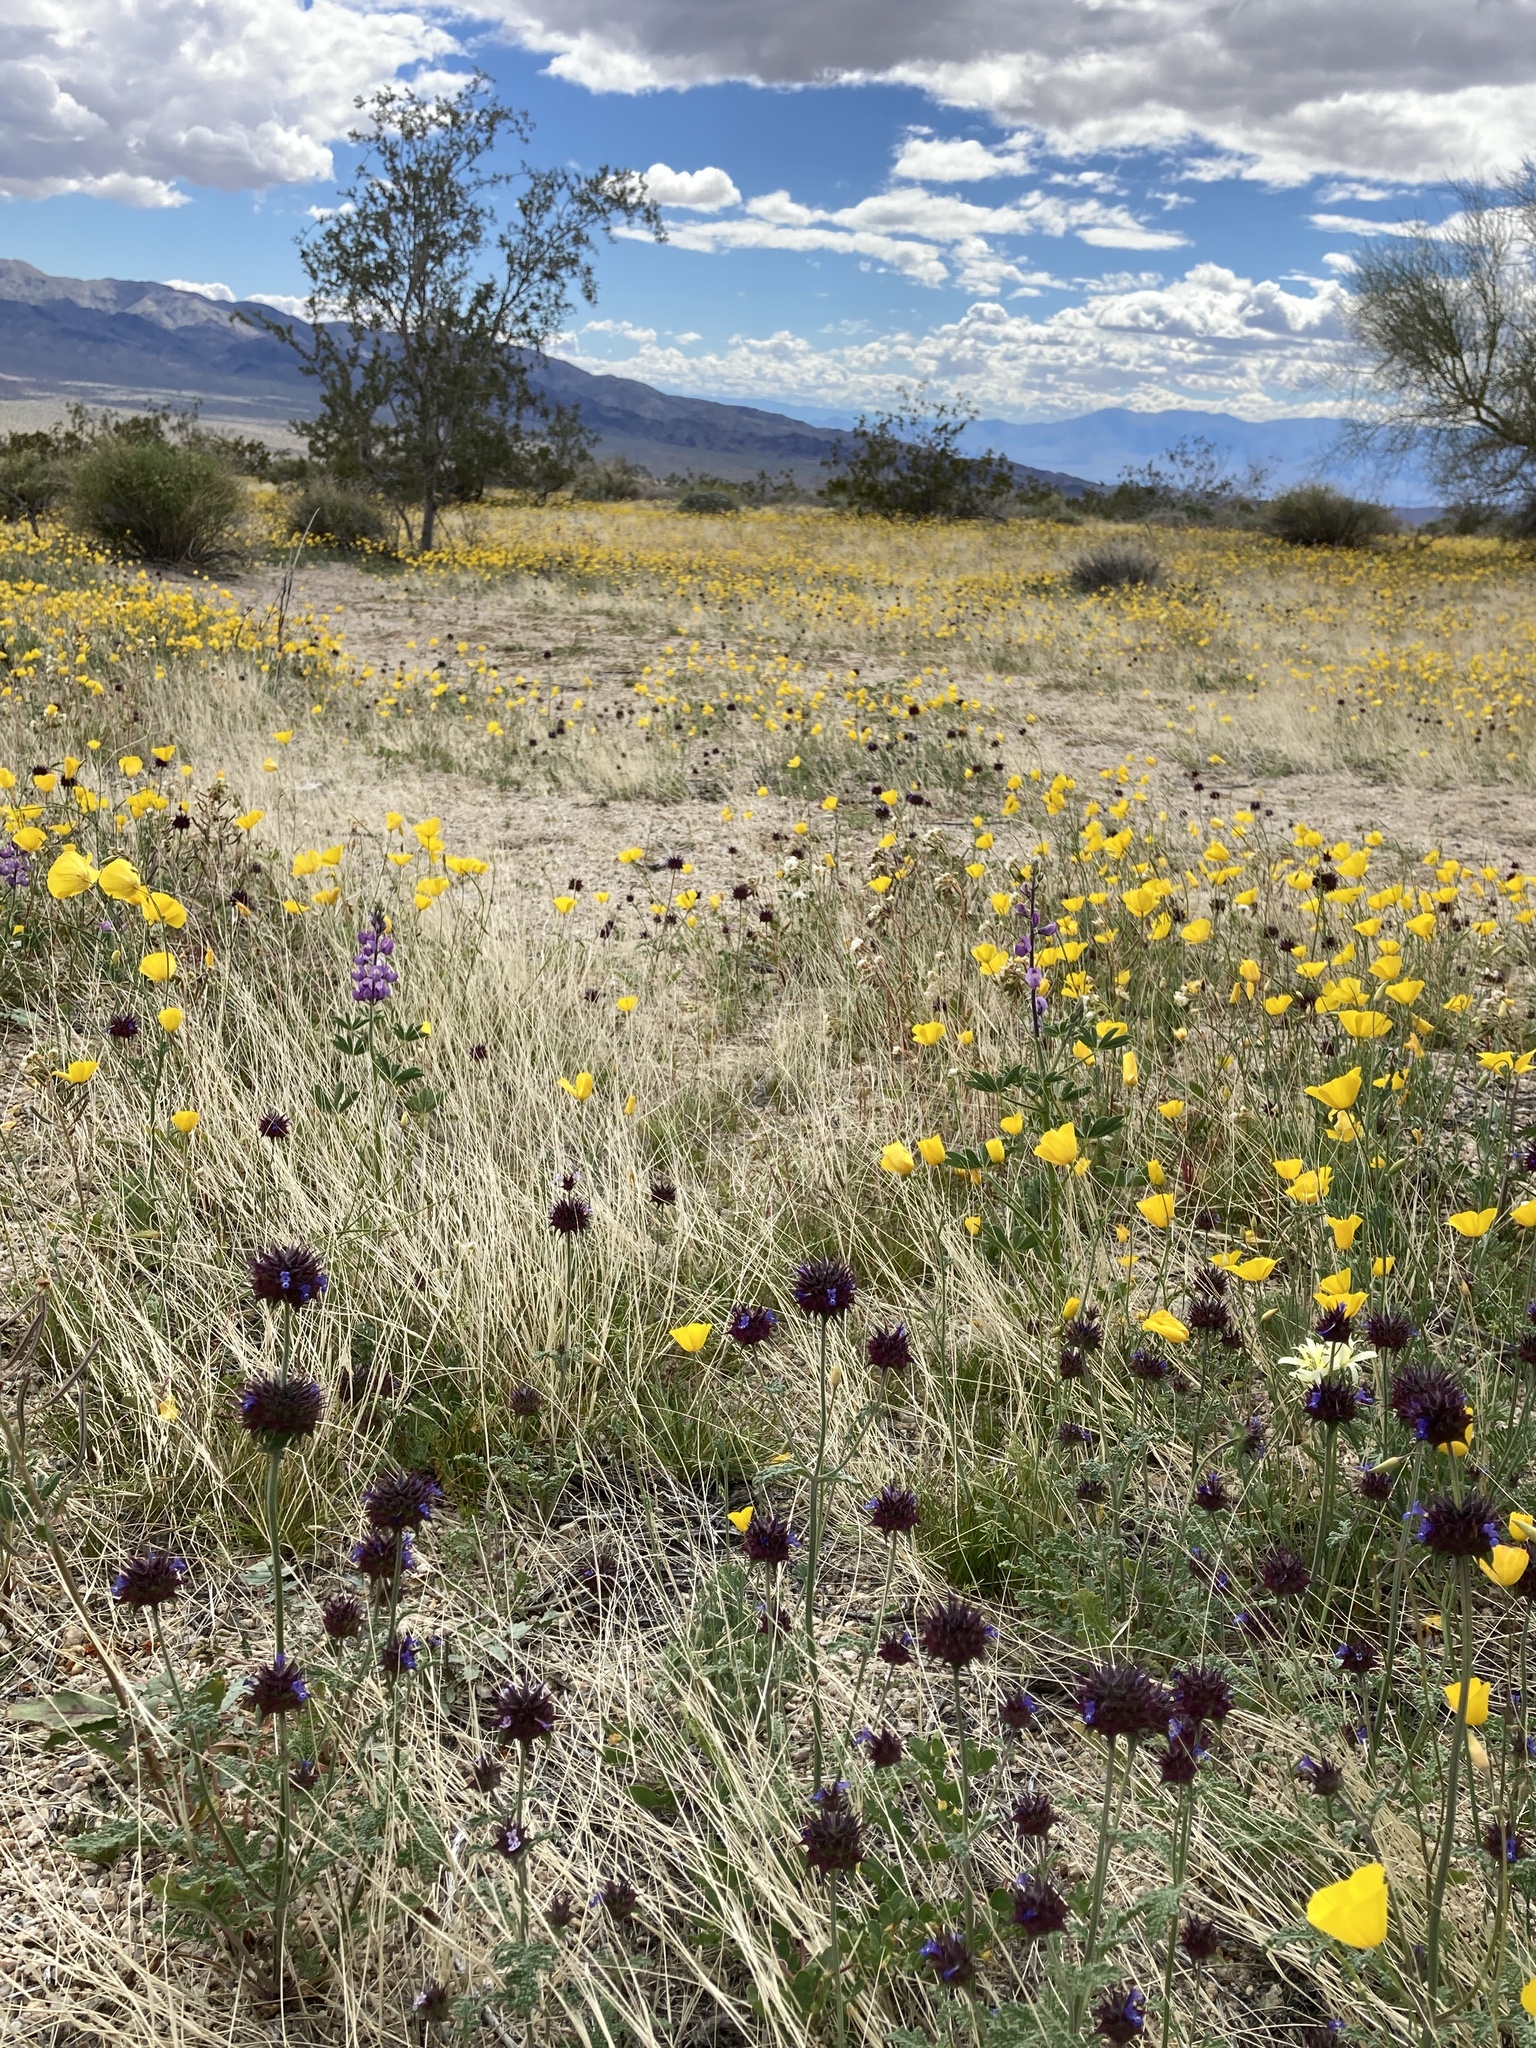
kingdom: Plantae
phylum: Tracheophyta
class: Magnoliopsida
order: Lamiales
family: Lamiaceae
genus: Salvia
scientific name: Salvia columbariae
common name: Chia
